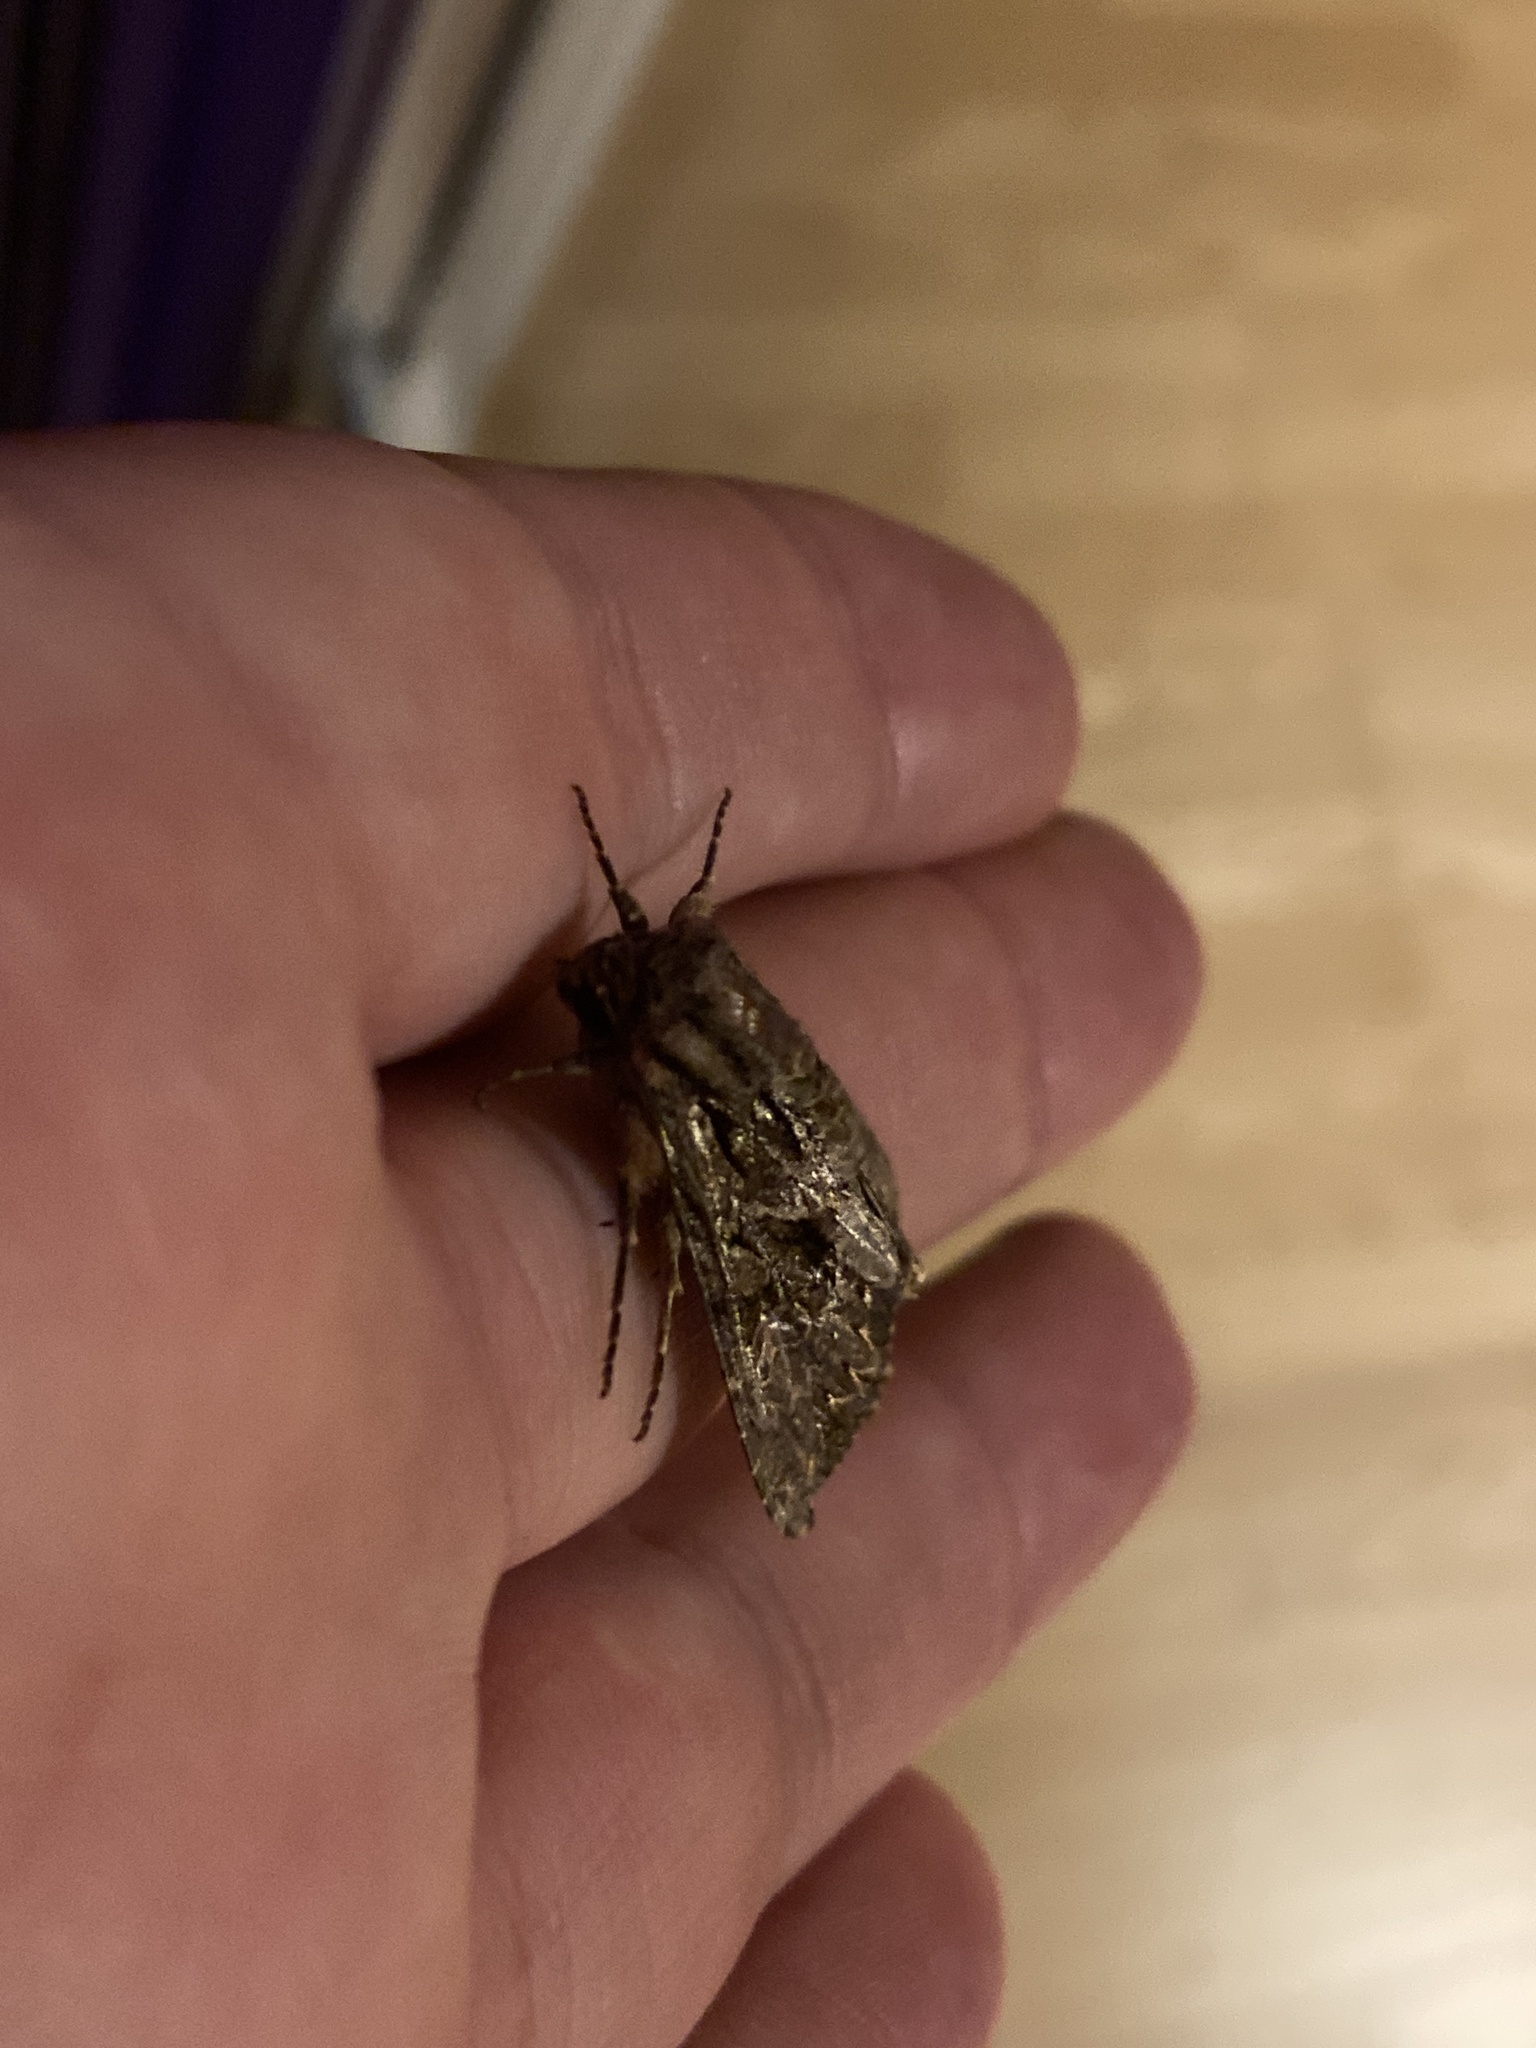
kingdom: Animalia
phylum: Arthropoda
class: Insecta
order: Lepidoptera
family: Noctuidae
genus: Apamea
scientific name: Apamea monoglypha
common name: Dark arches
